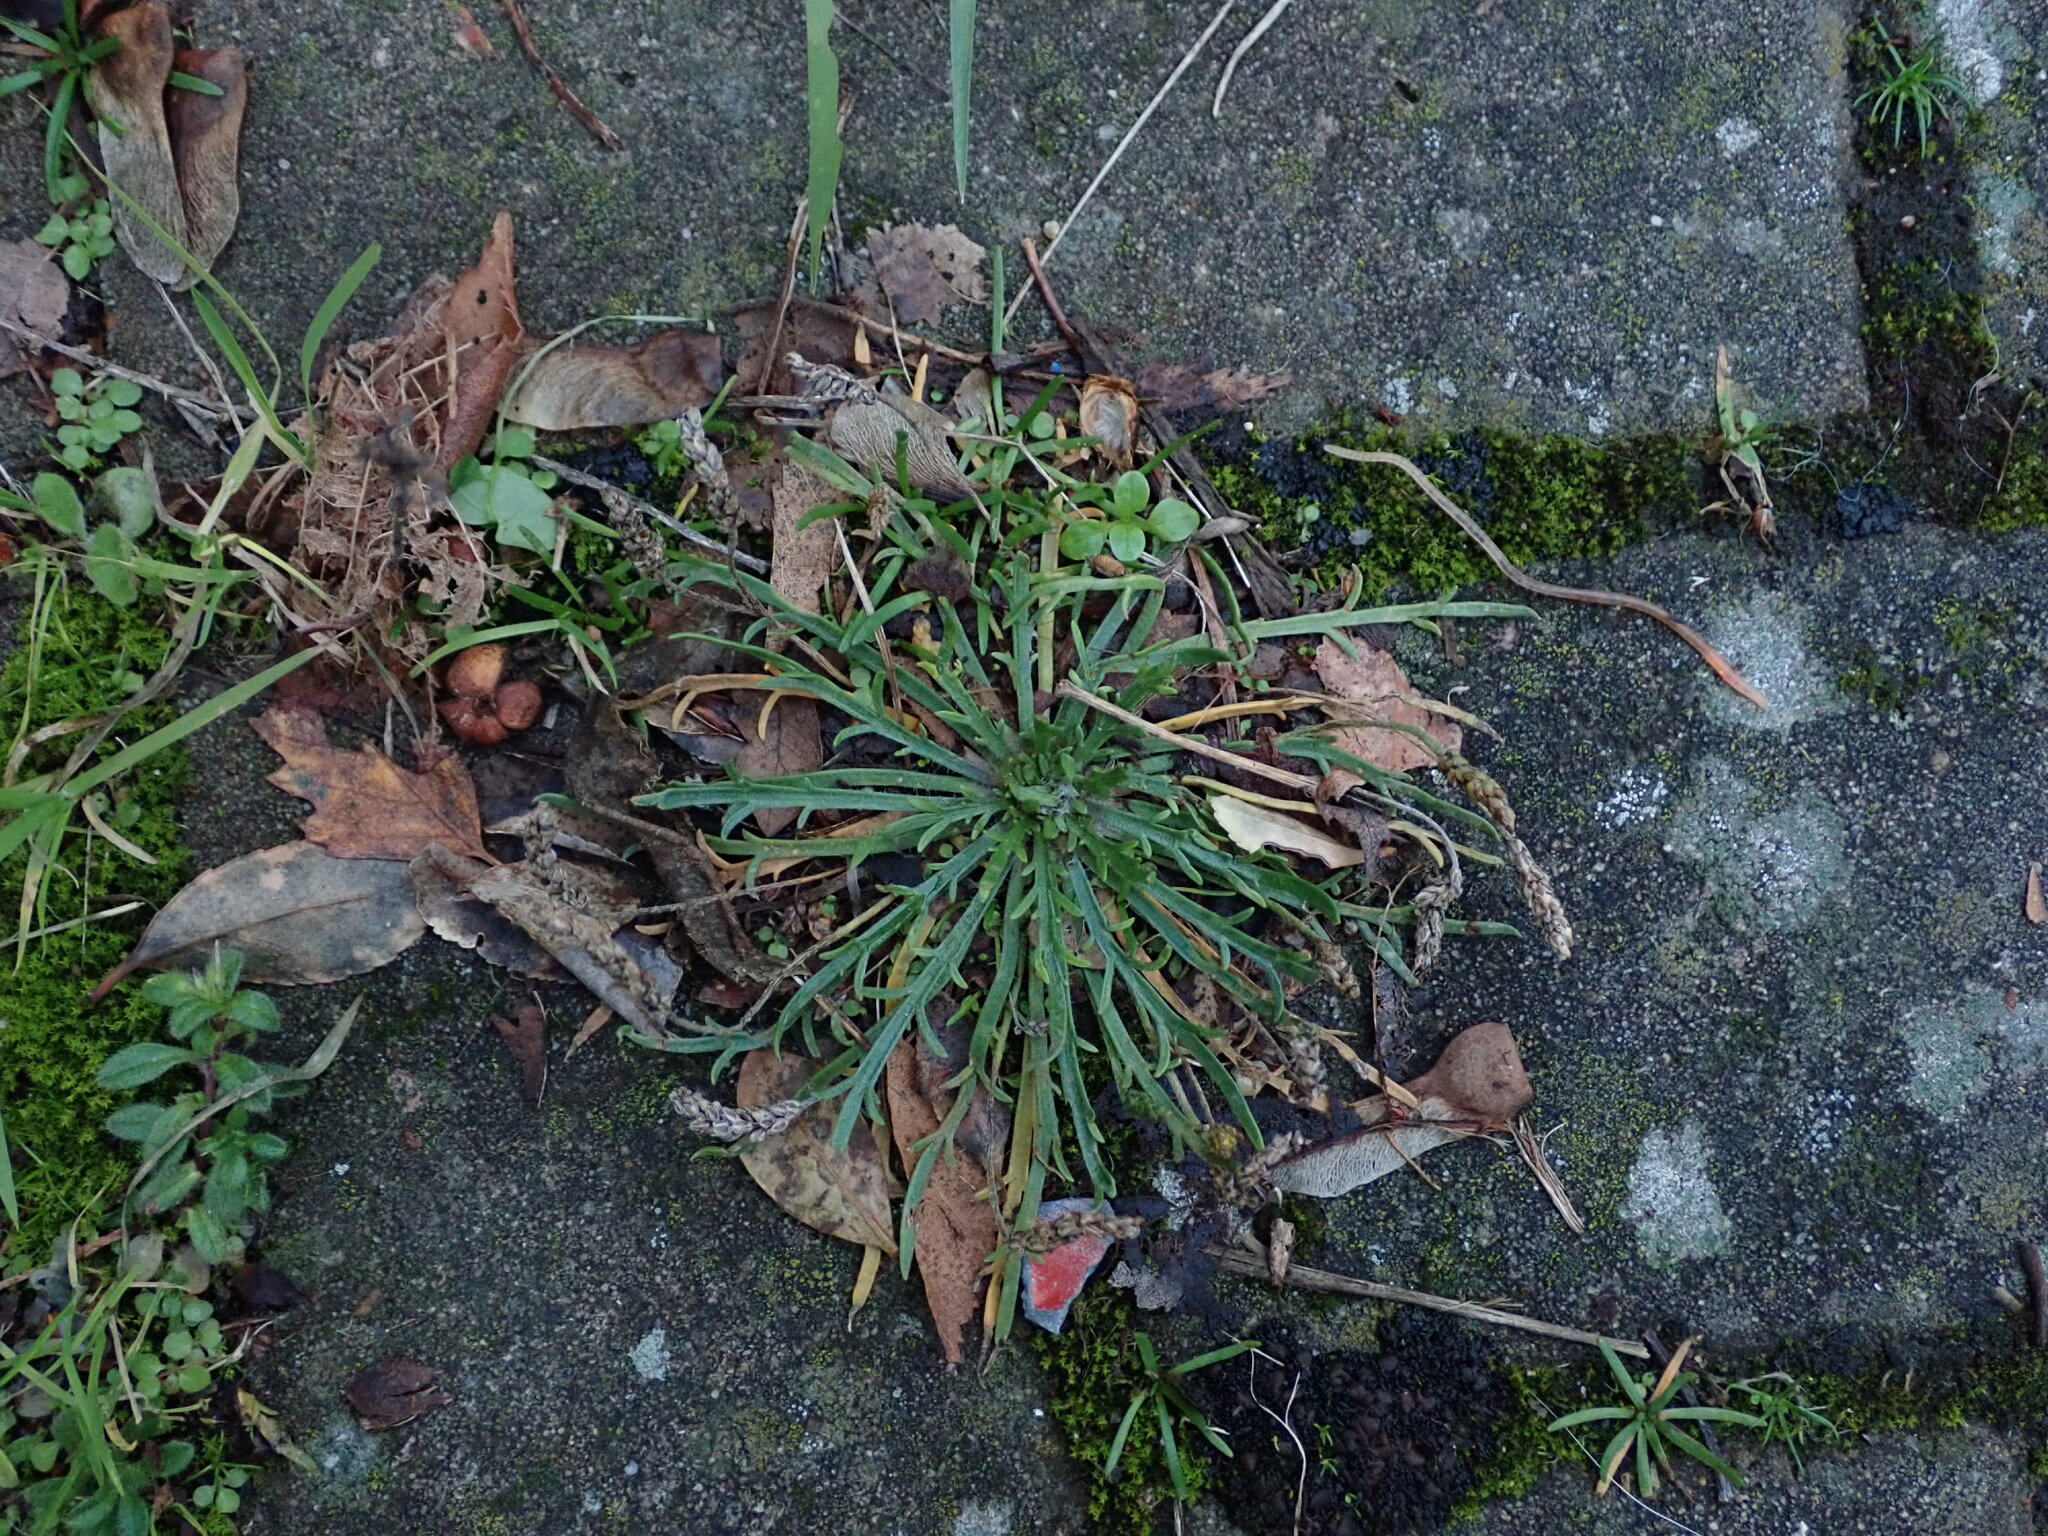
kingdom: Plantae
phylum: Tracheophyta
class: Magnoliopsida
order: Lamiales
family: Plantaginaceae
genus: Plantago
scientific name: Plantago coronopus
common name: Buck's-horn plantain
